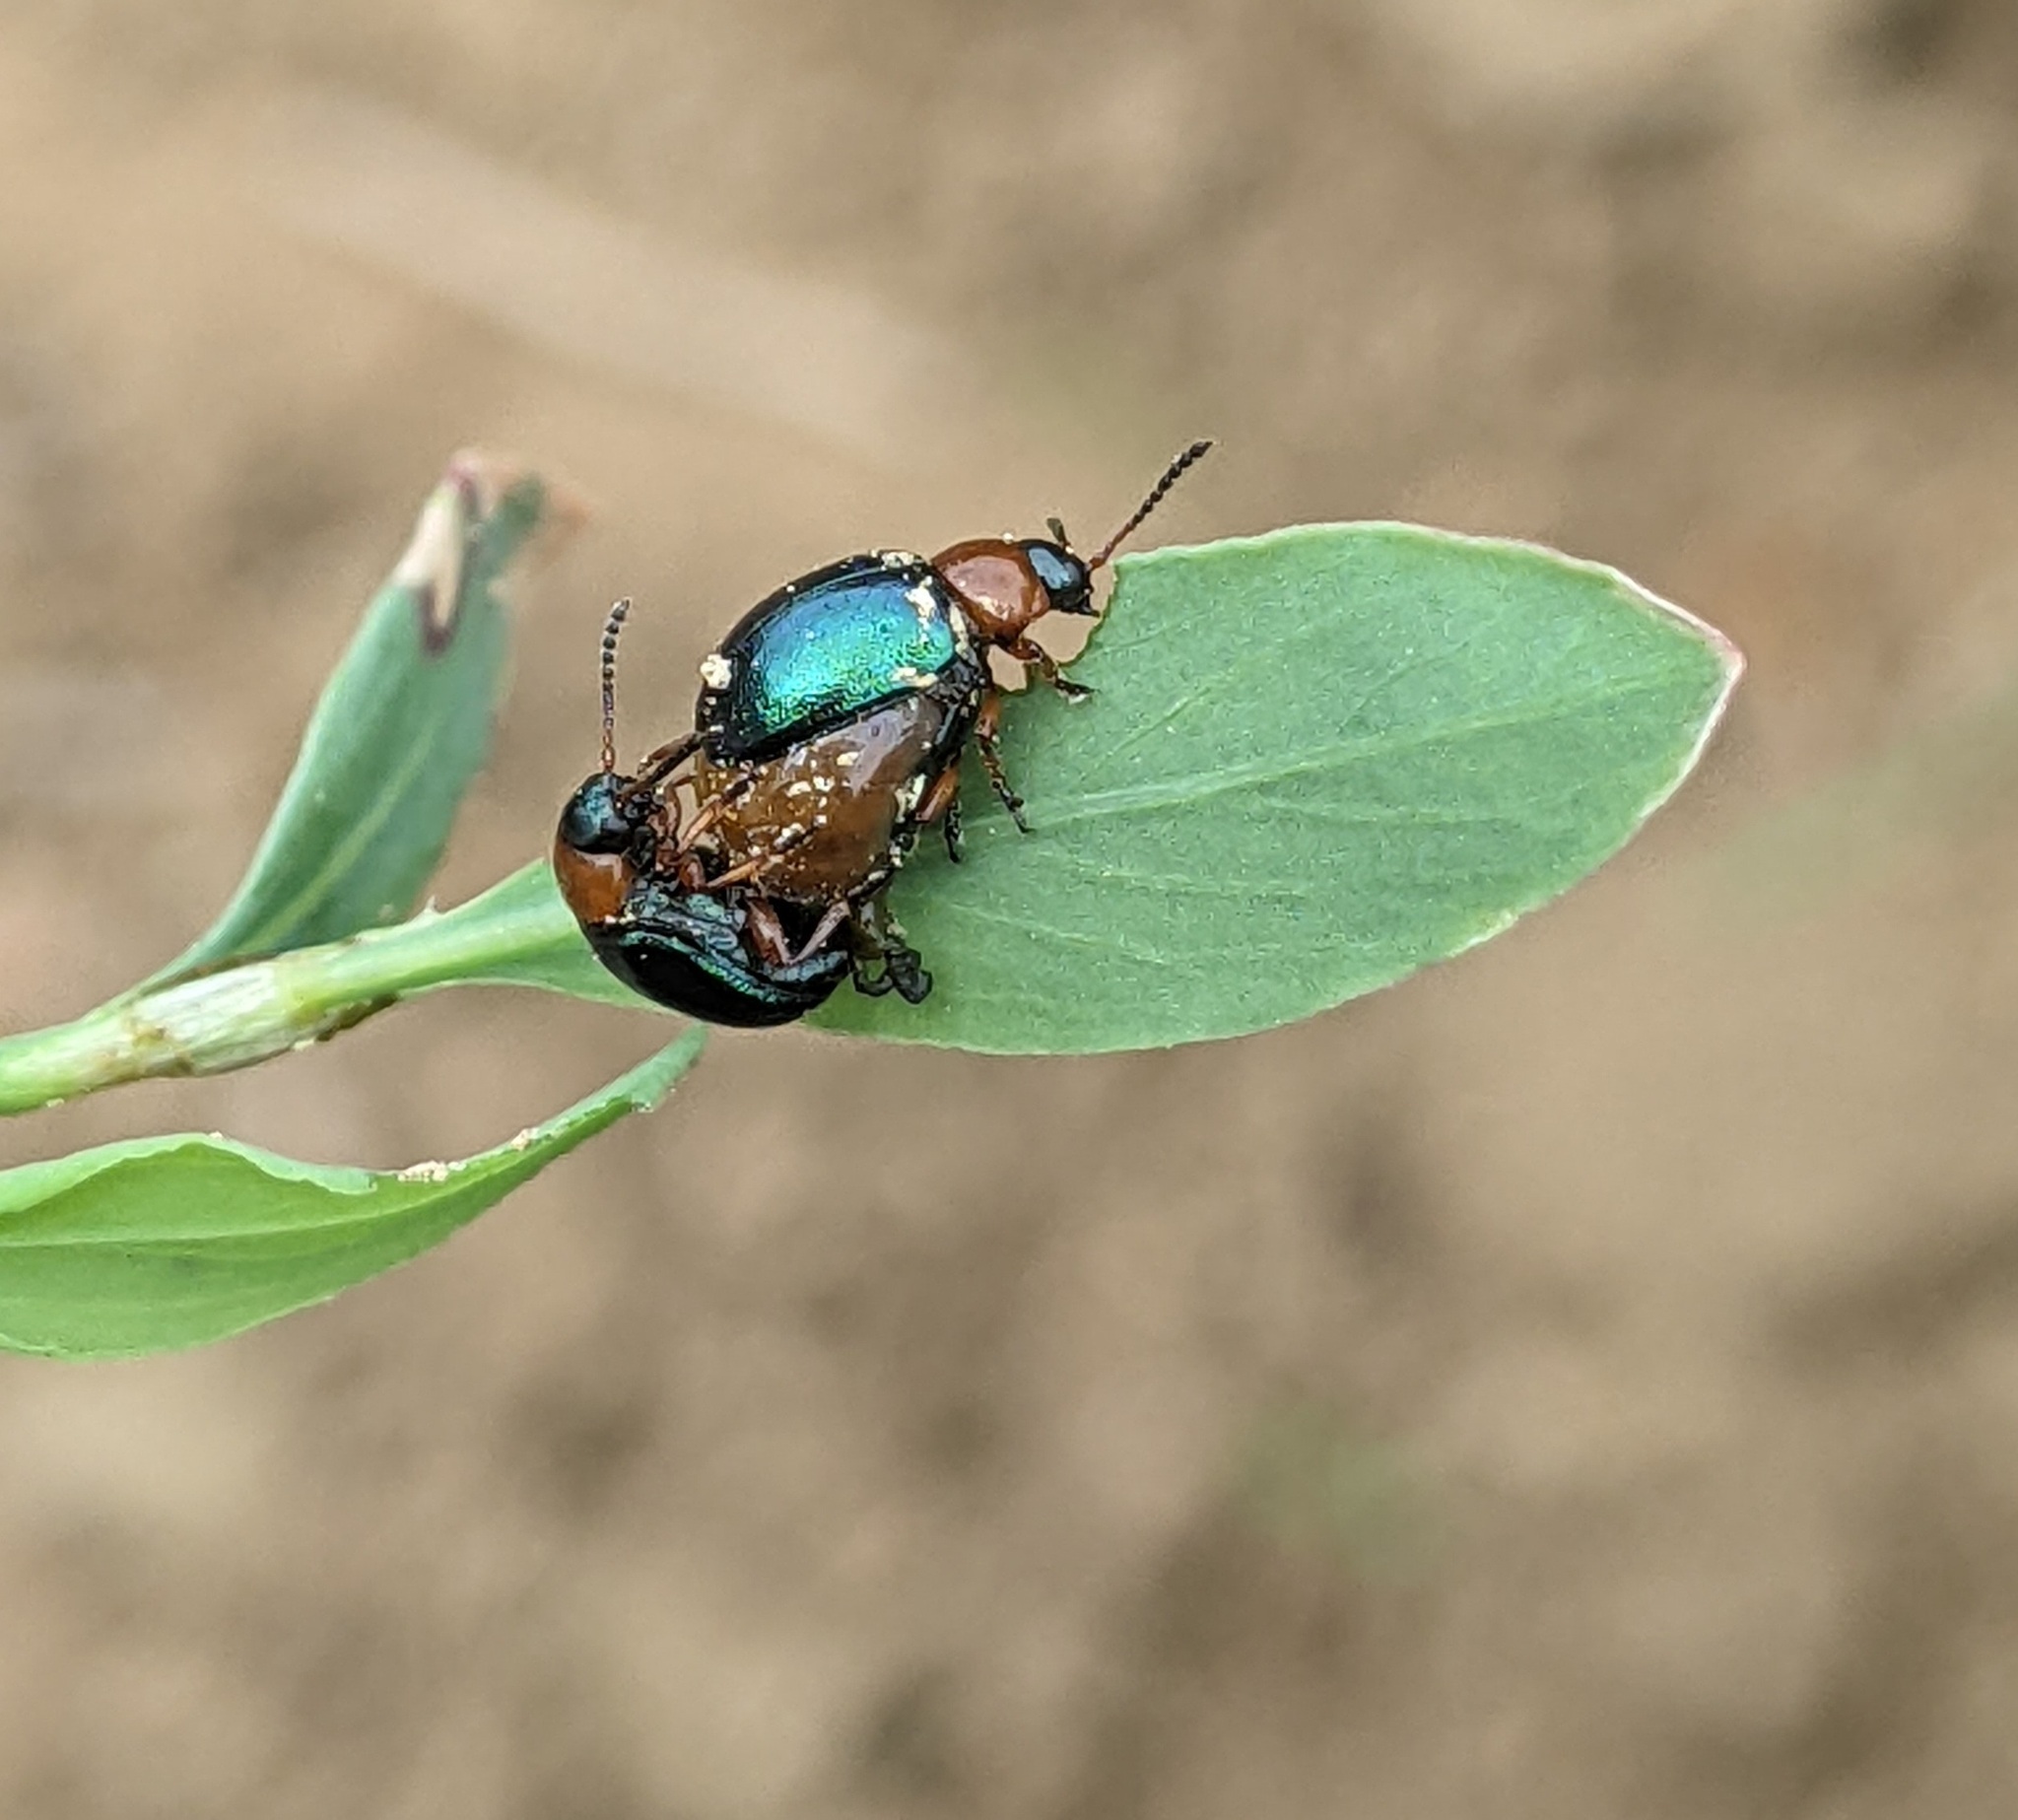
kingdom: Animalia
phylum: Arthropoda
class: Insecta
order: Coleoptera
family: Chrysomelidae
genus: Gastrophysa
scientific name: Gastrophysa polygoni
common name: Knotweed leaf beetle
